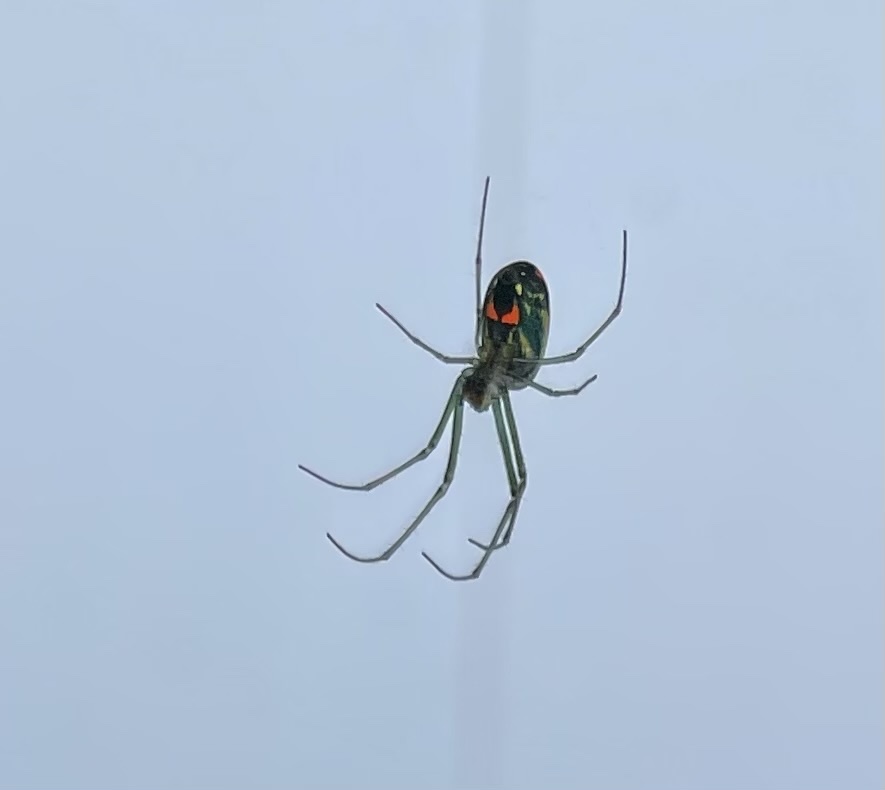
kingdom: Animalia
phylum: Arthropoda
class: Arachnida
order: Araneae
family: Tetragnathidae
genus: Leucauge
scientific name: Leucauge argyrobapta
